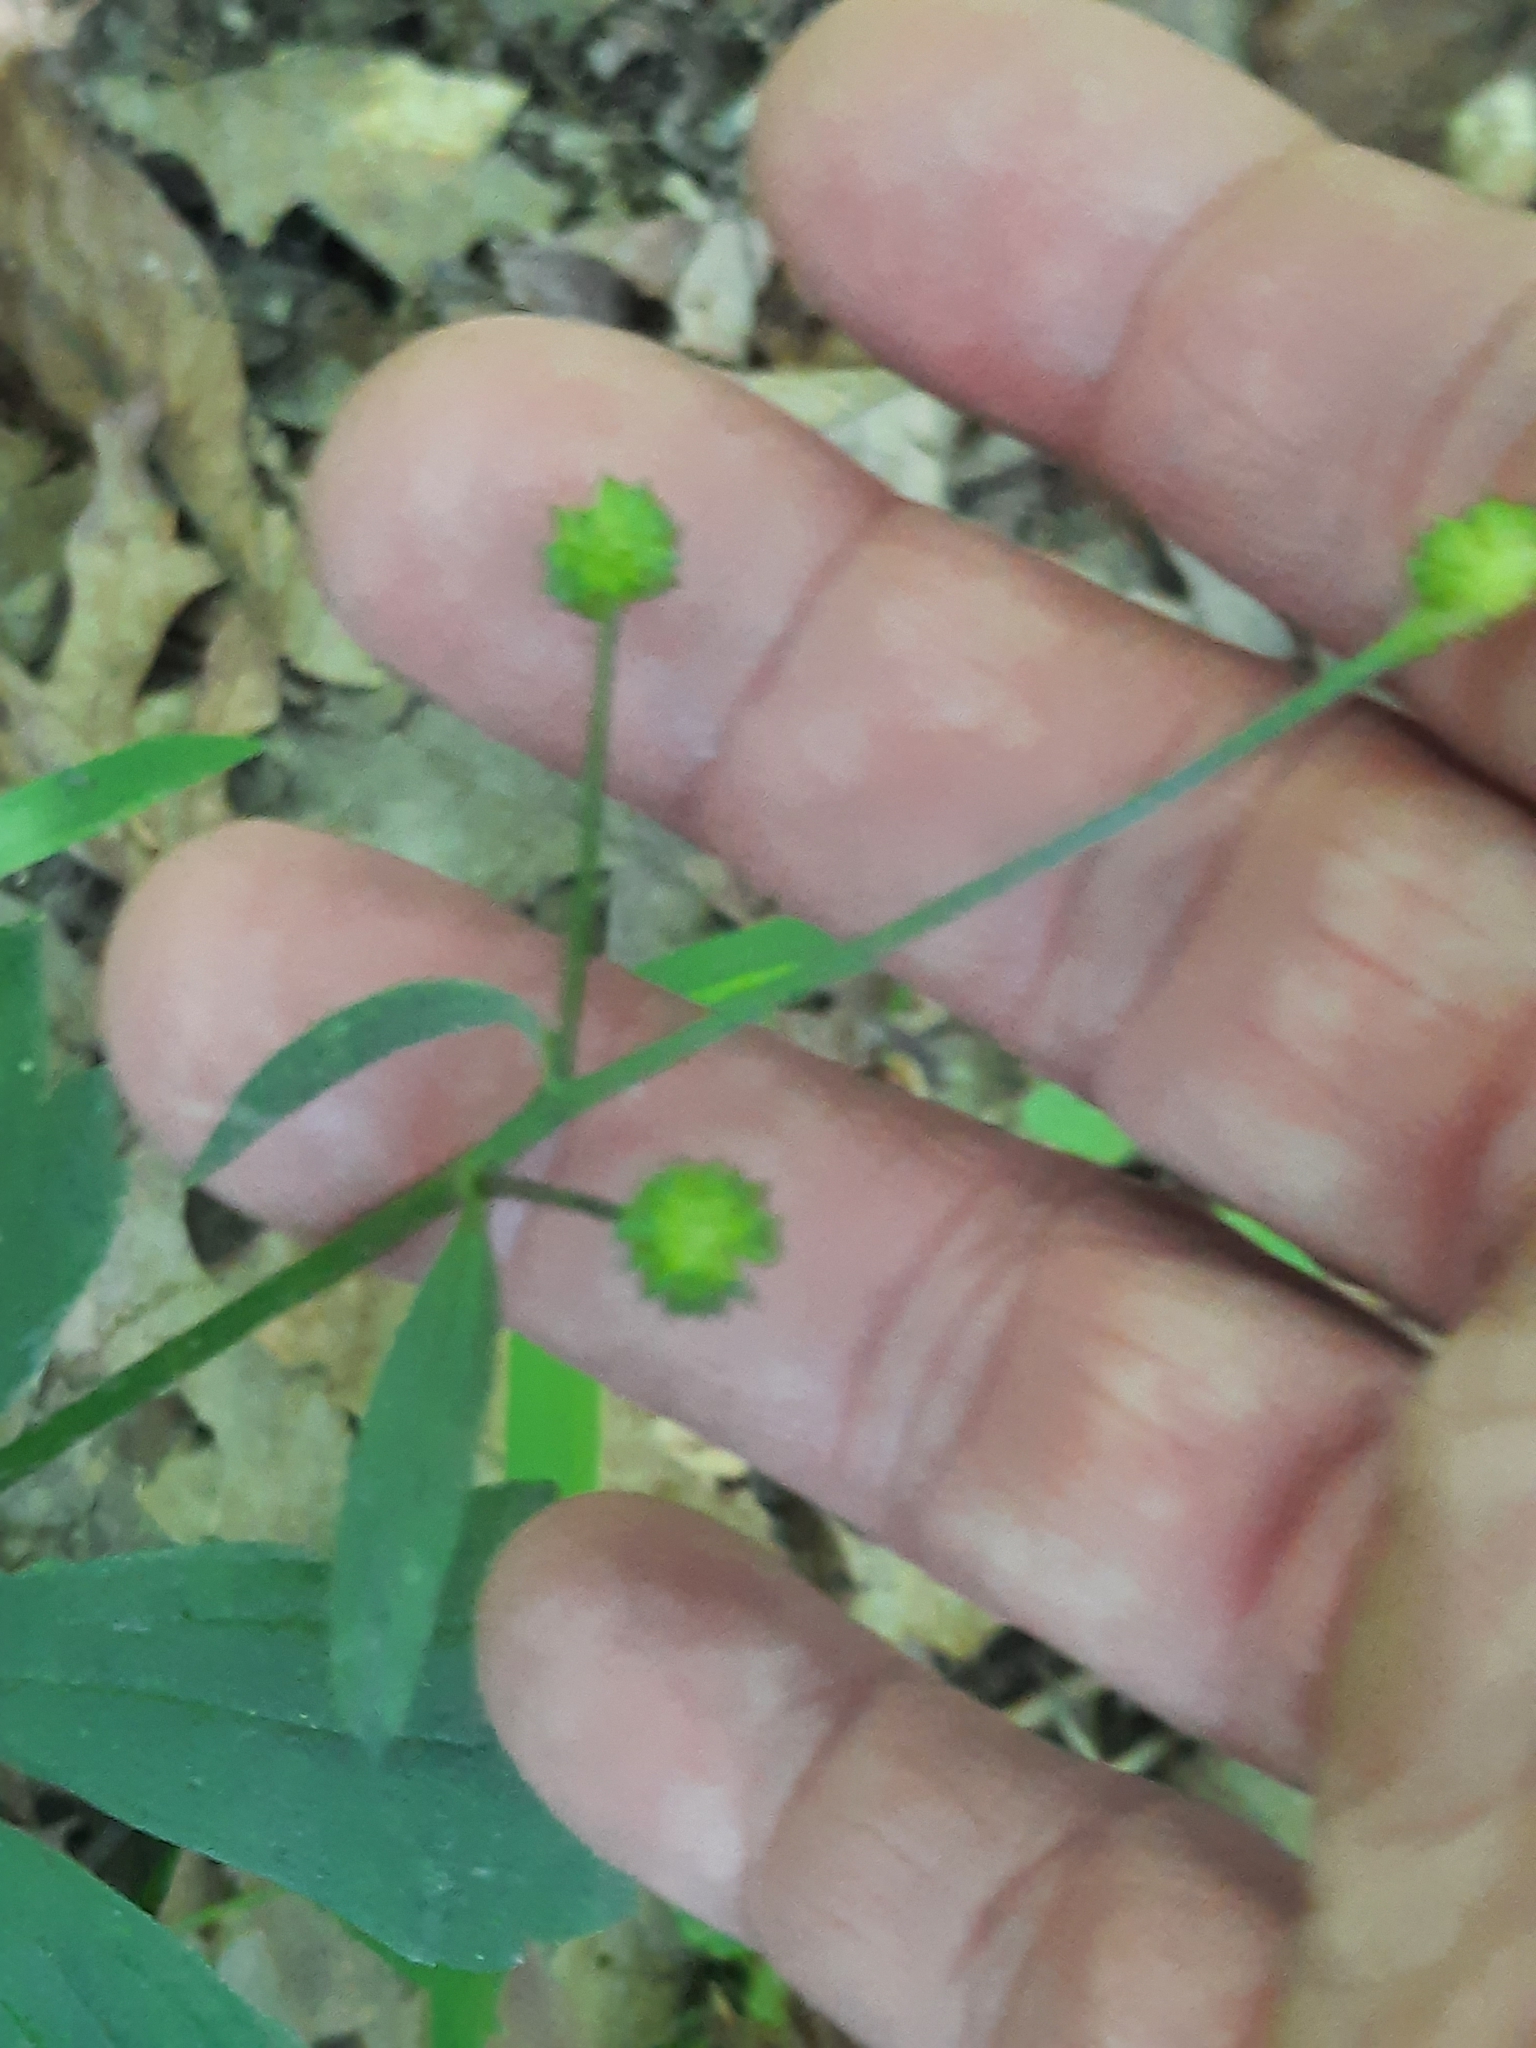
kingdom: Plantae
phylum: Tracheophyta
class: Magnoliopsida
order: Ranunculales
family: Ranunculaceae
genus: Ranunculus
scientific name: Ranunculus recurvatus
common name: Blisterwort
